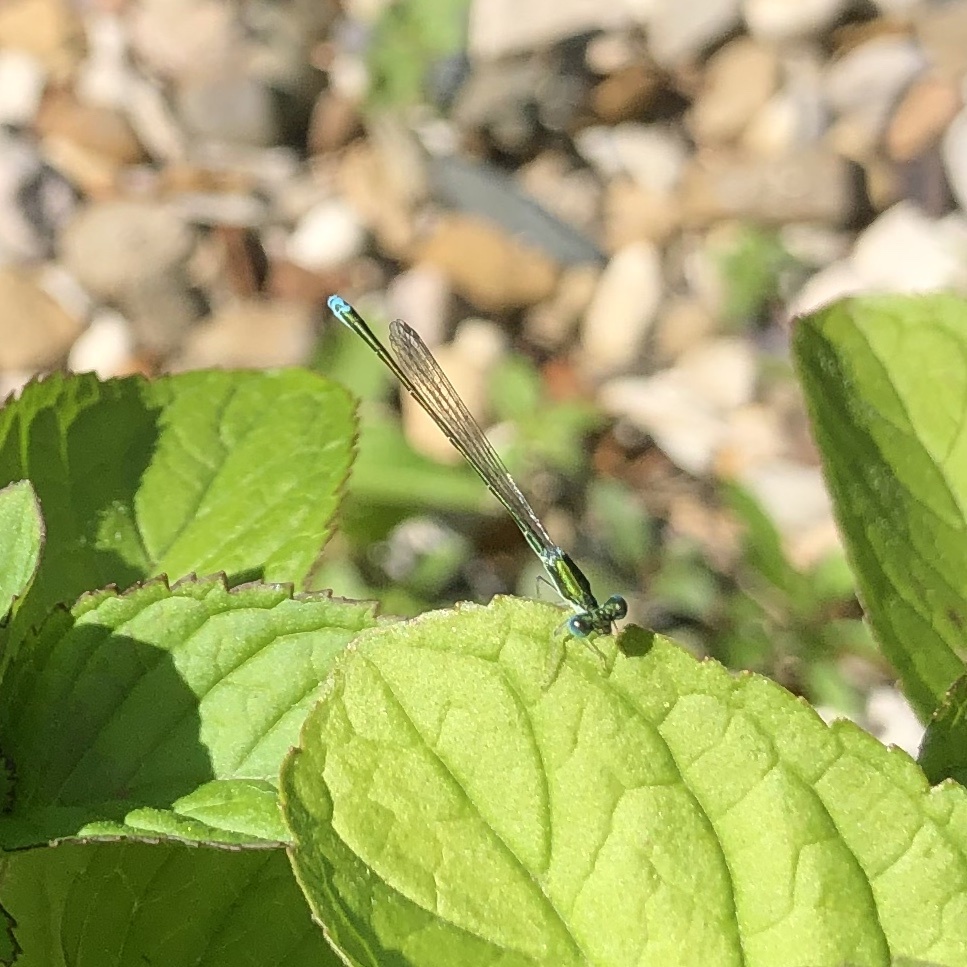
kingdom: Animalia
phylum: Arthropoda
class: Insecta
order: Odonata
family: Coenagrionidae
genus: Nehalennia
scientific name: Nehalennia irene
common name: Sedge sprite
